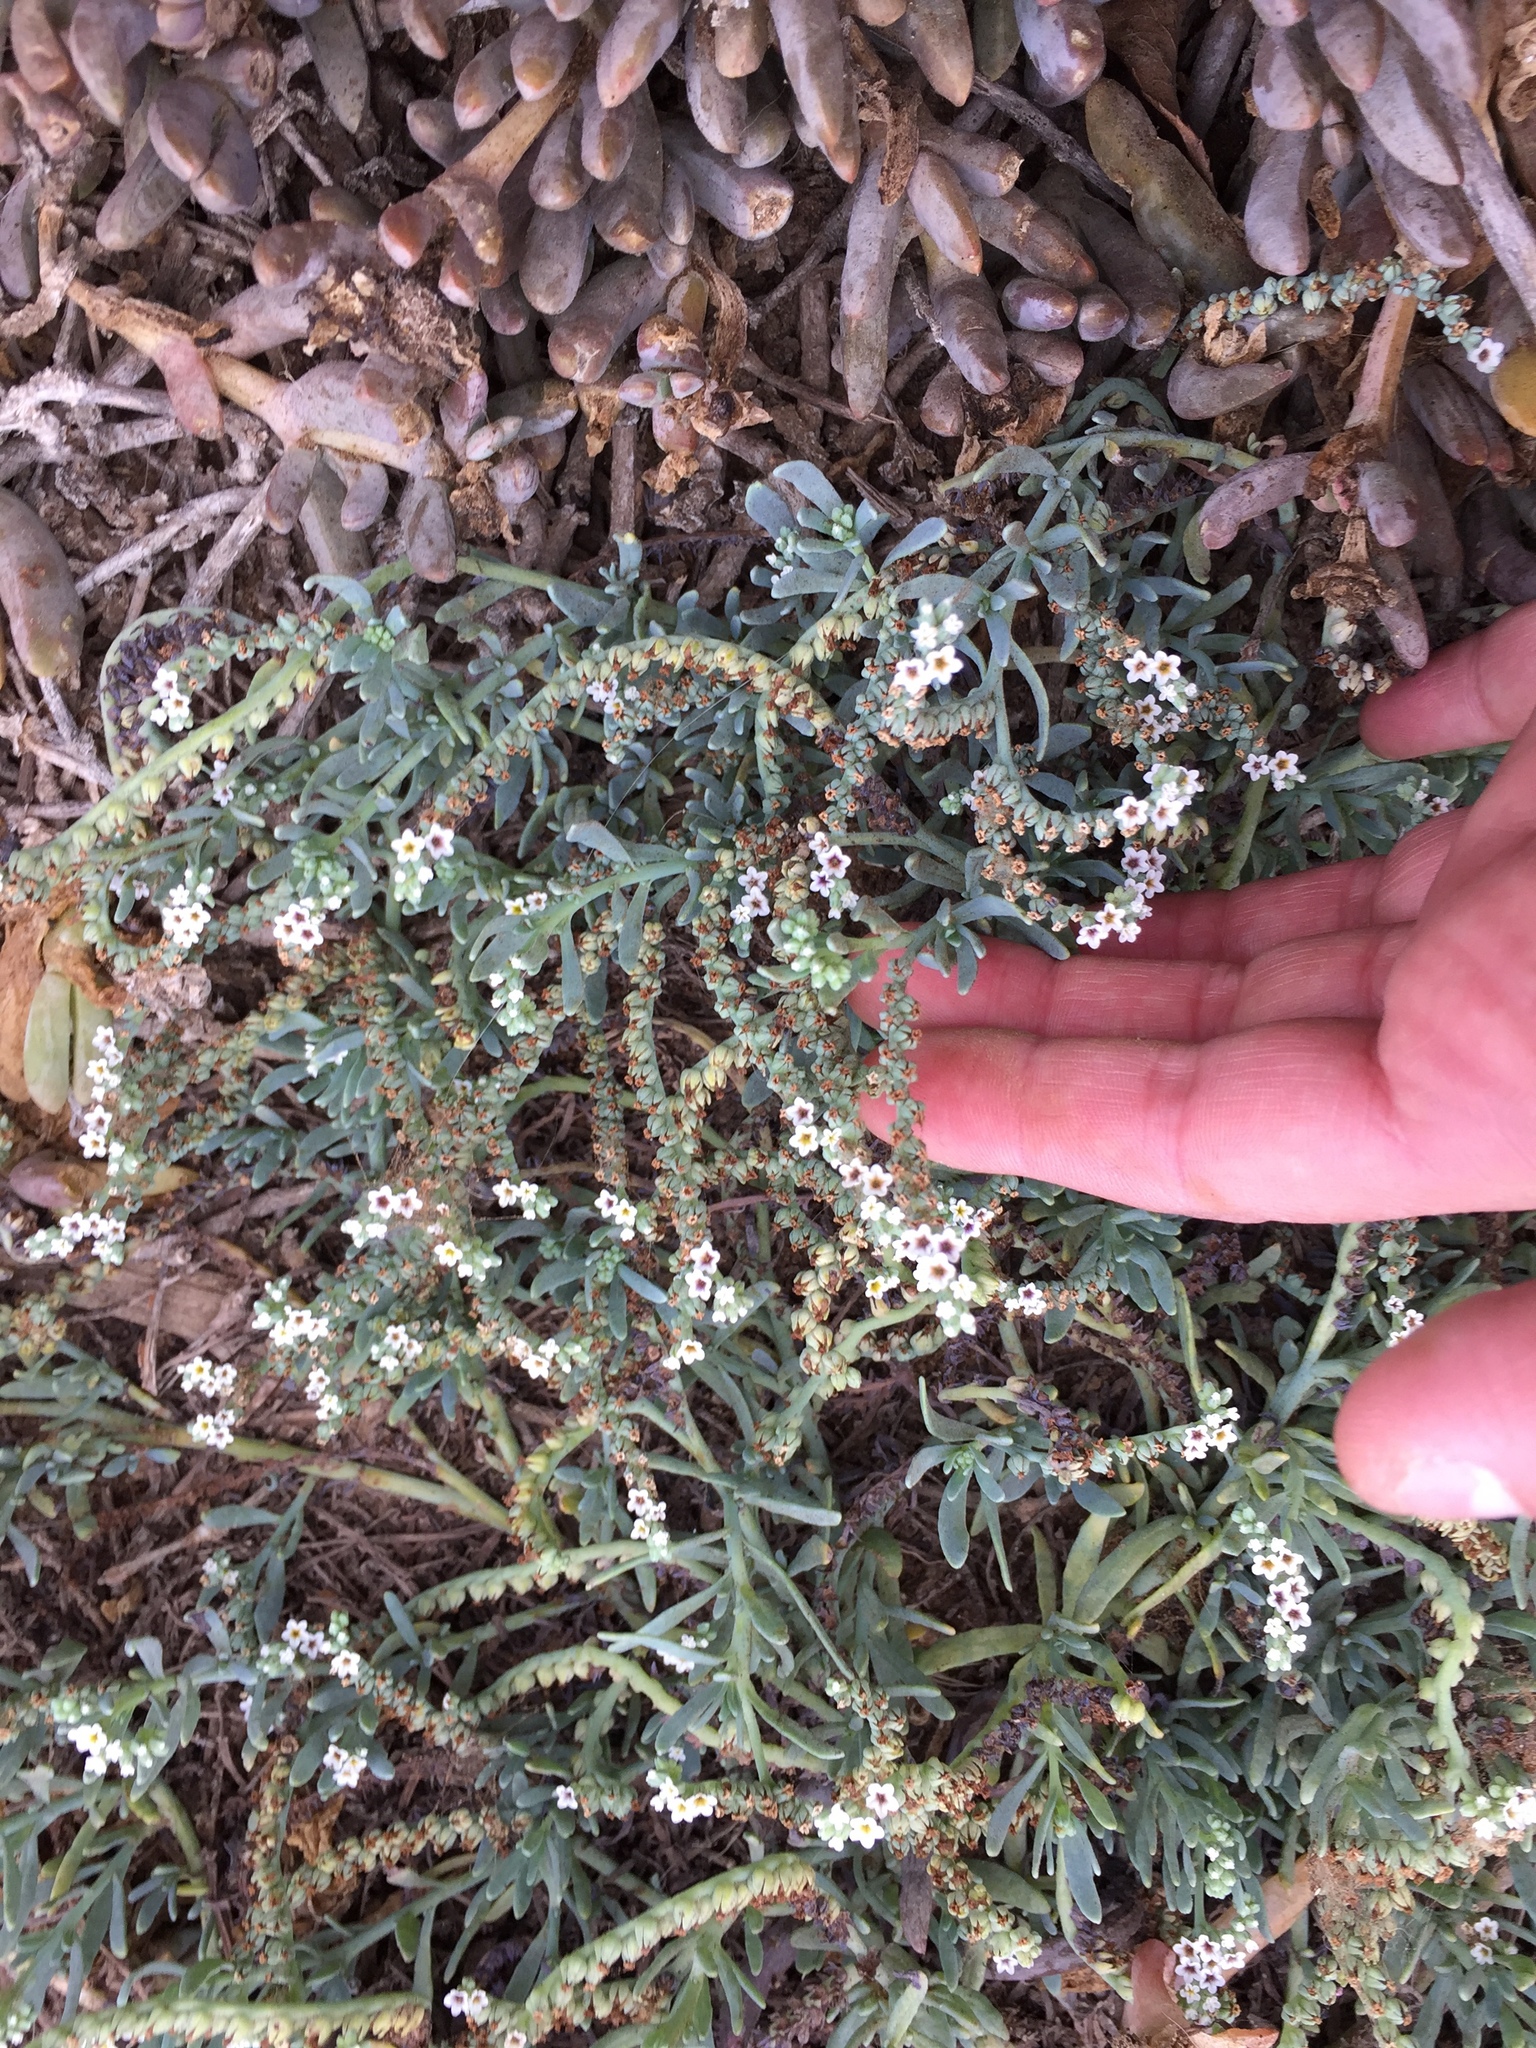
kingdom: Plantae
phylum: Tracheophyta
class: Magnoliopsida
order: Boraginales
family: Heliotropiaceae
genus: Heliotropium
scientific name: Heliotropium curassavicum
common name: Seaside heliotrope
